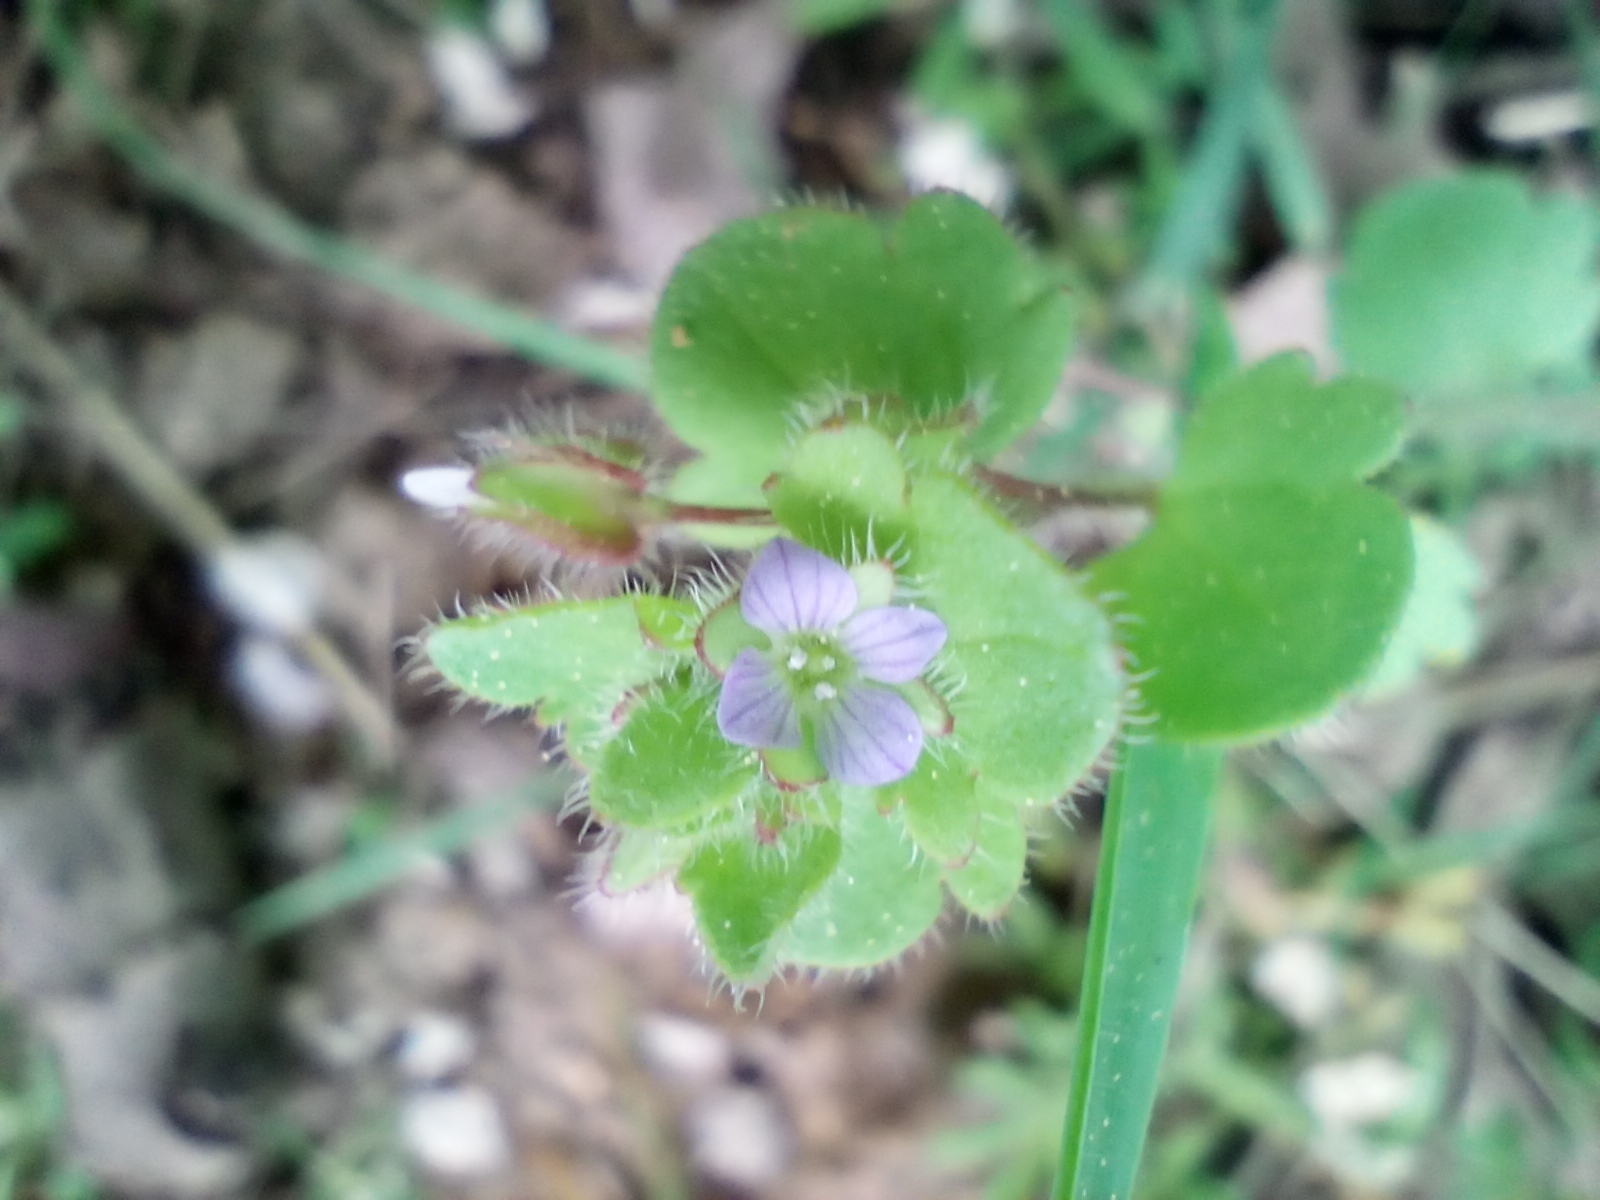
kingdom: Plantae
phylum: Tracheophyta
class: Magnoliopsida
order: Lamiales
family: Plantaginaceae
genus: Veronica
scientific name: Veronica sublobata
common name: False ivy-leaved speedwell
